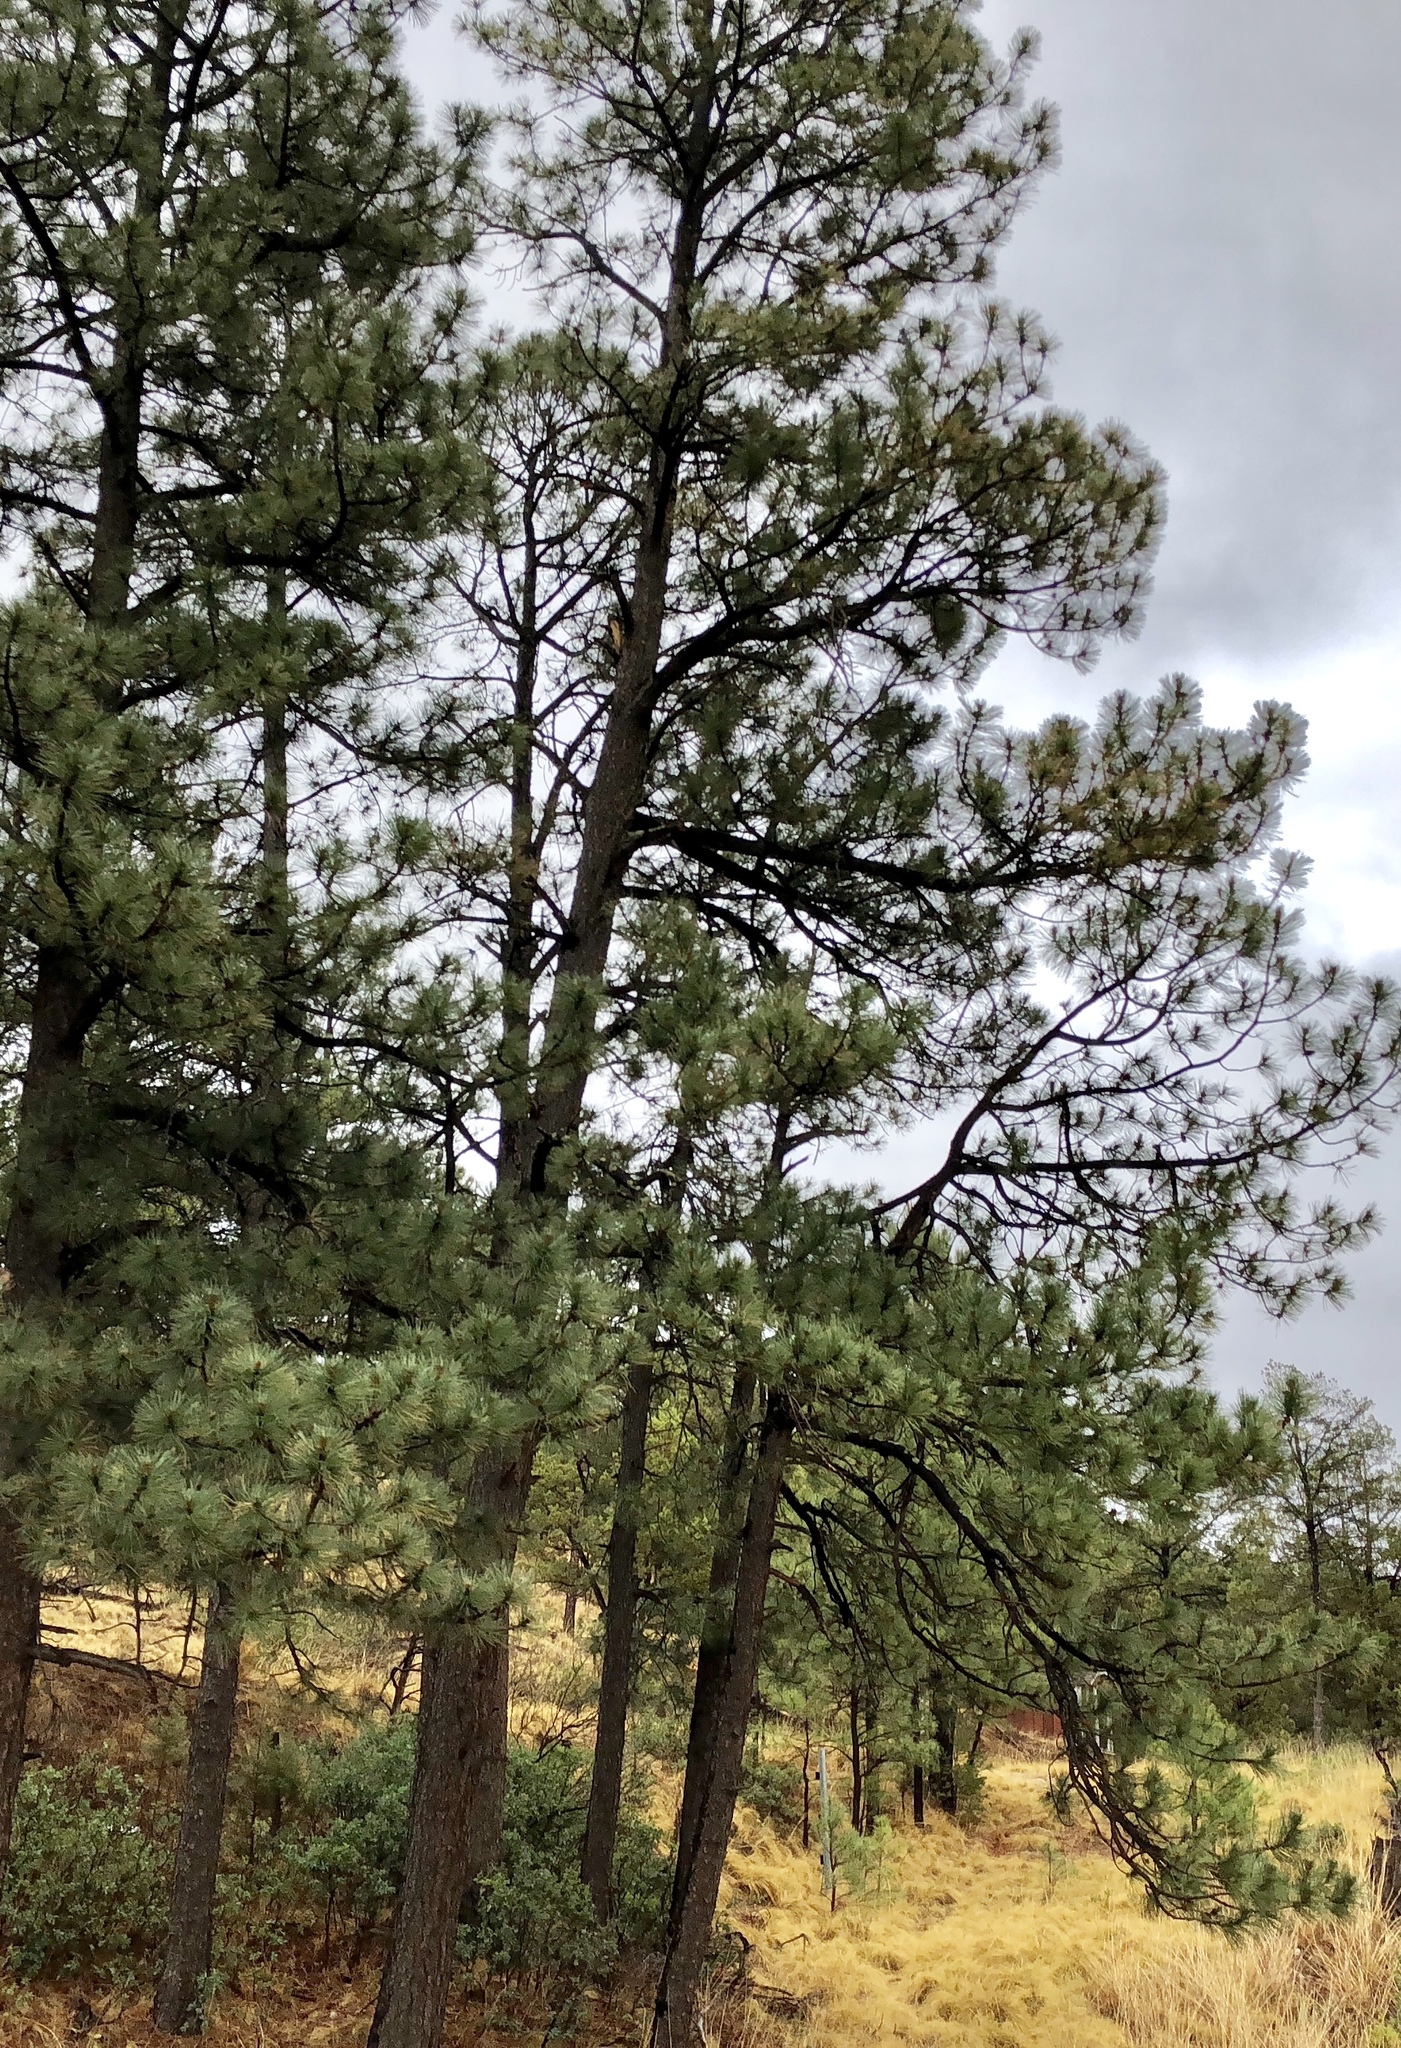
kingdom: Plantae
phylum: Tracheophyta
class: Pinopsida
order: Pinales
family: Pinaceae
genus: Pinus
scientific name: Pinus ponderosa
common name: Western yellow-pine
